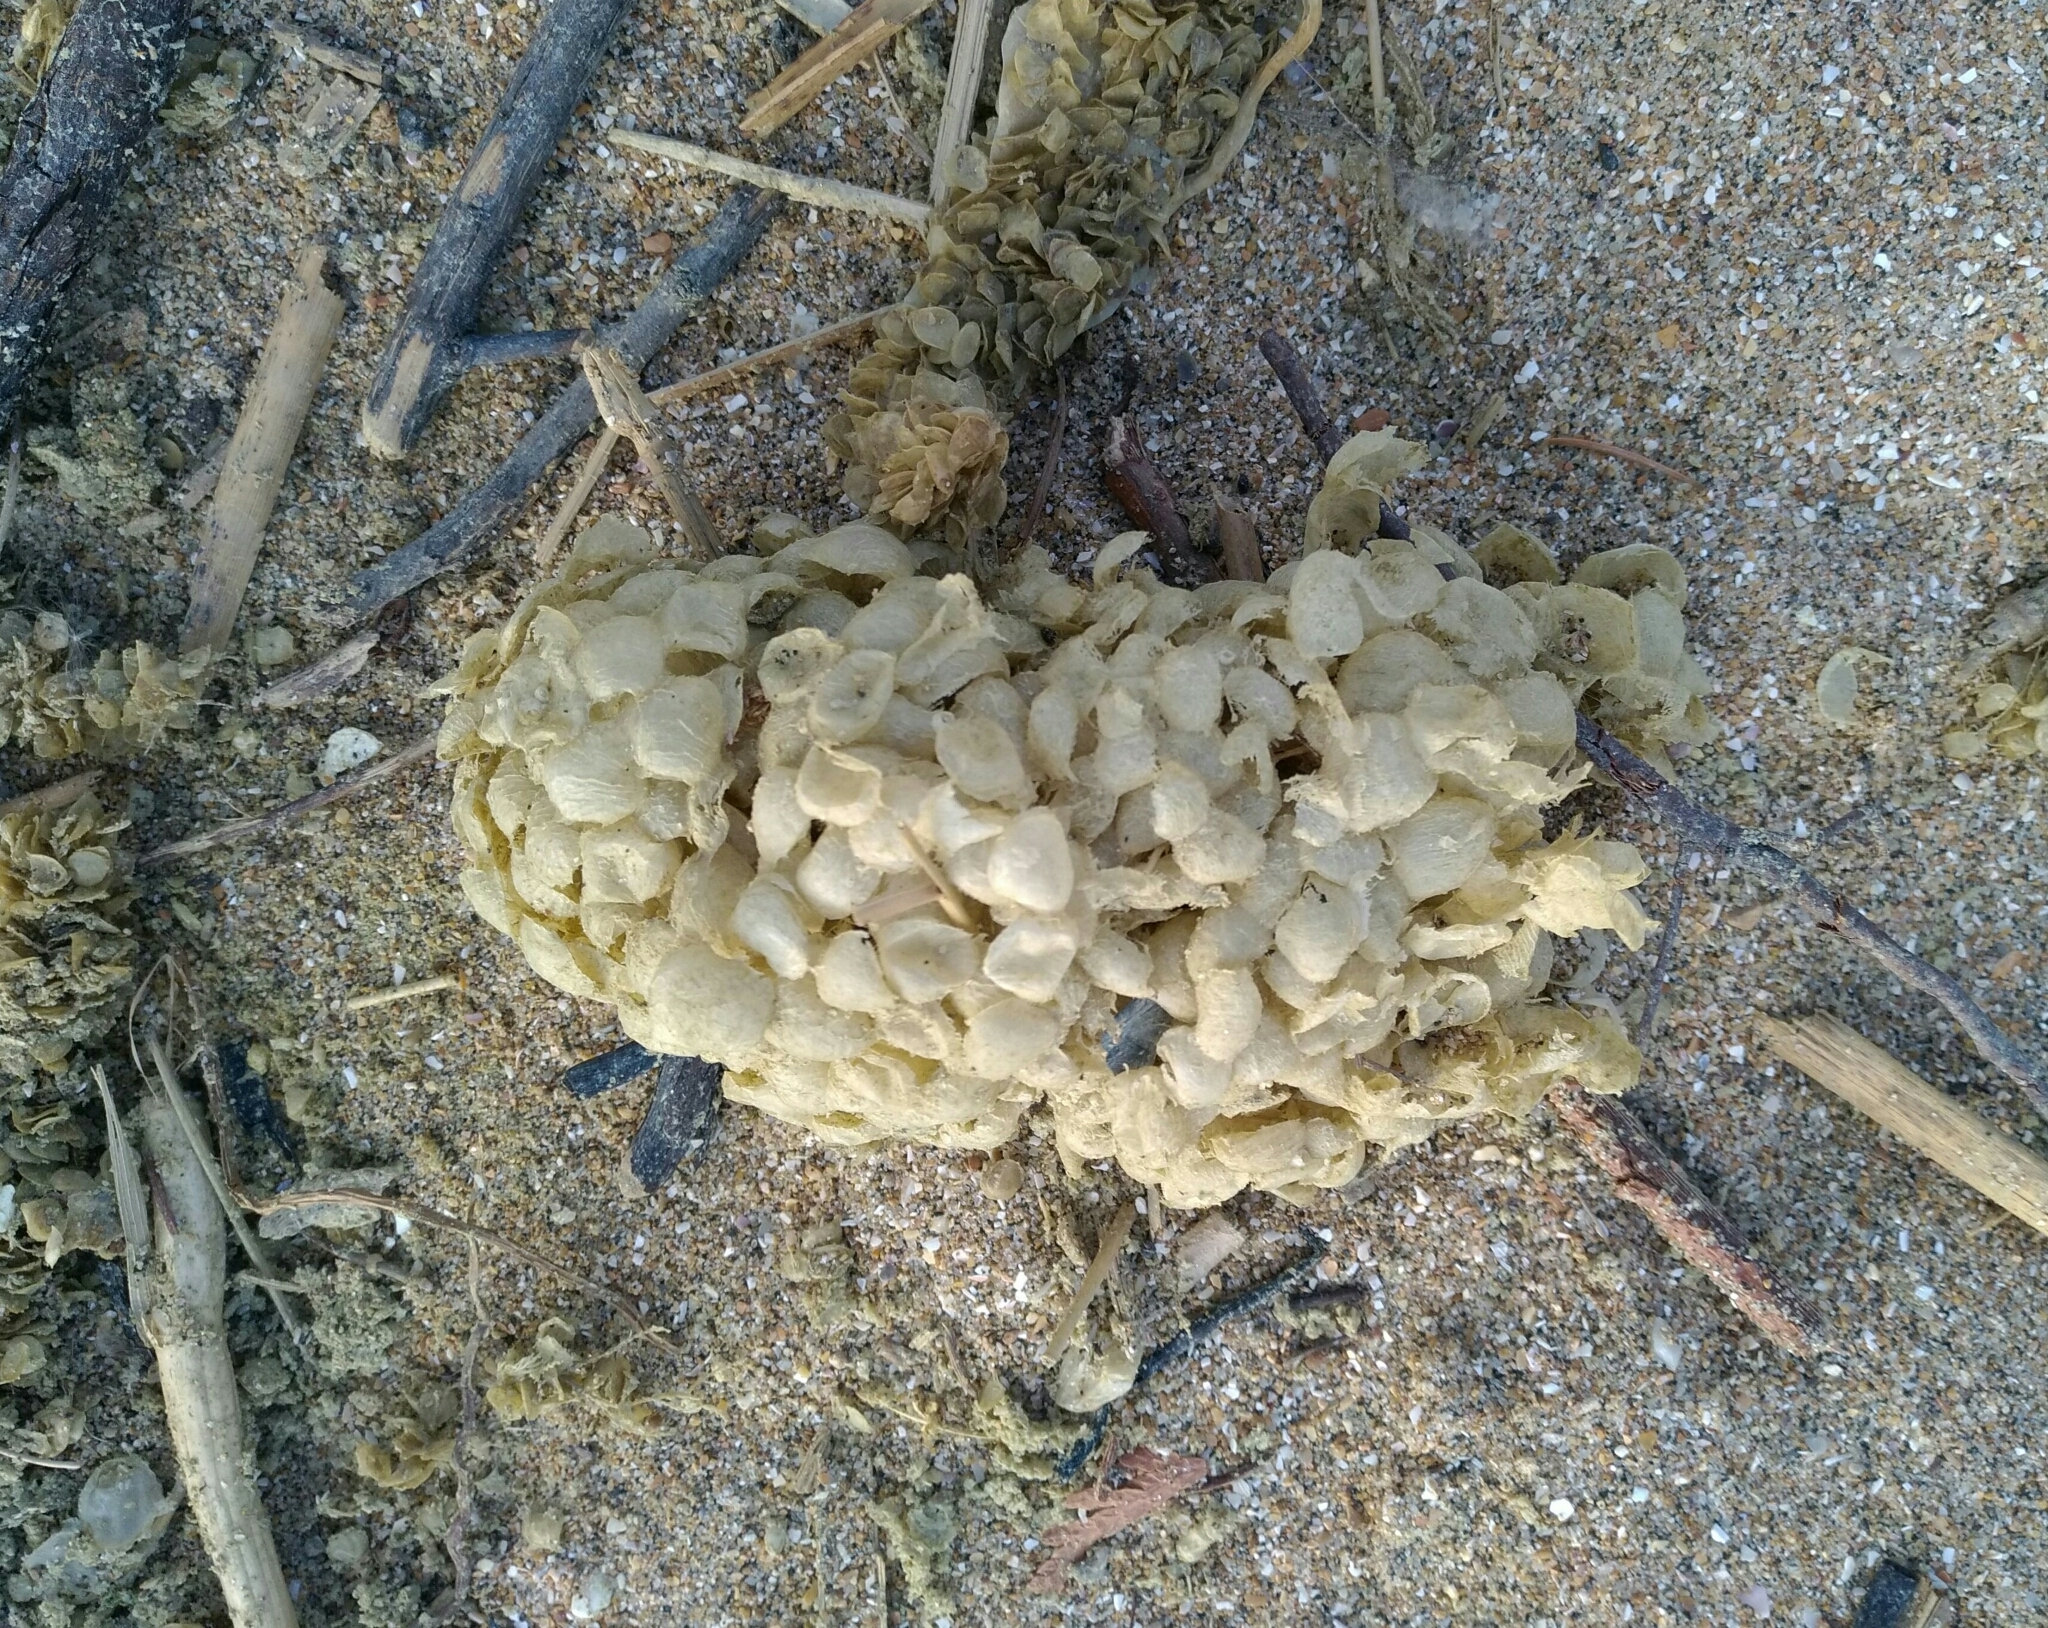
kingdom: Animalia
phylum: Mollusca
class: Gastropoda
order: Neogastropoda
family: Buccinidae
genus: Buccinum
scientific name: Buccinum undatum
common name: Common whelk
